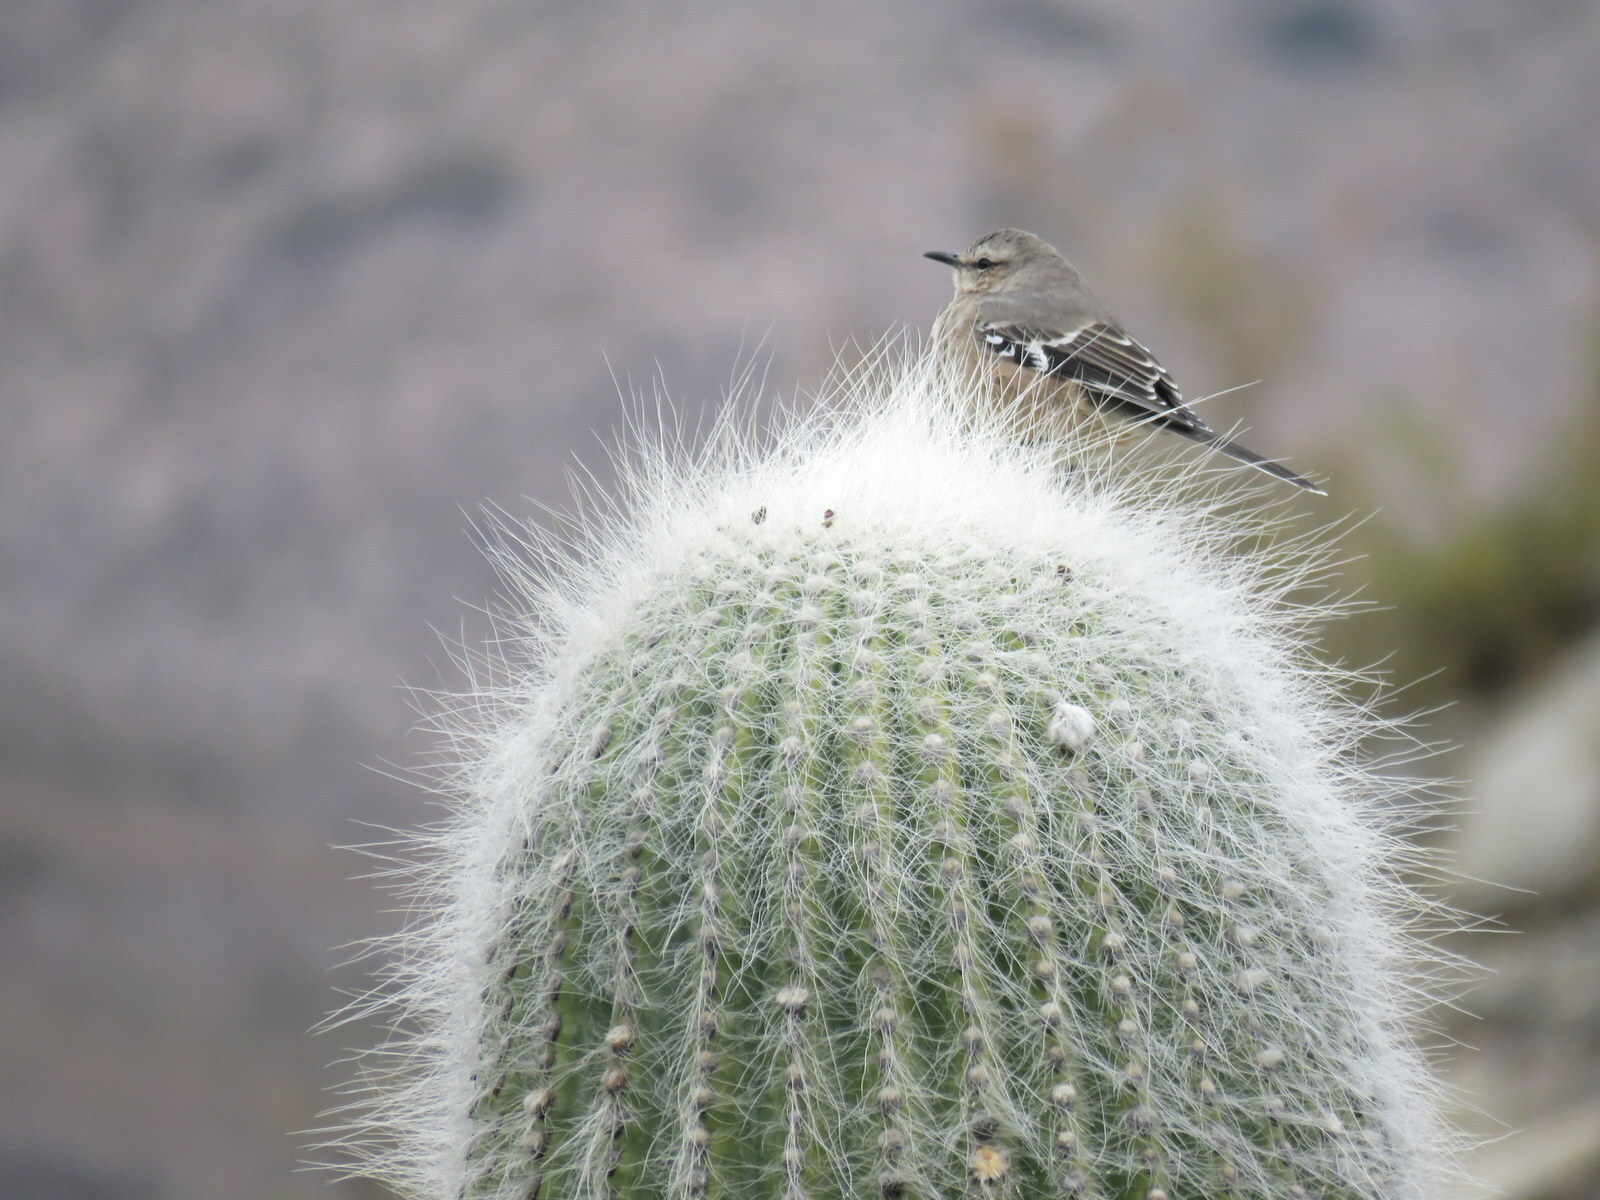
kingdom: Animalia
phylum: Chordata
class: Aves
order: Passeriformes
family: Mimidae
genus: Mimus
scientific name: Mimus patagonicus
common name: Patagonian mockingbird
